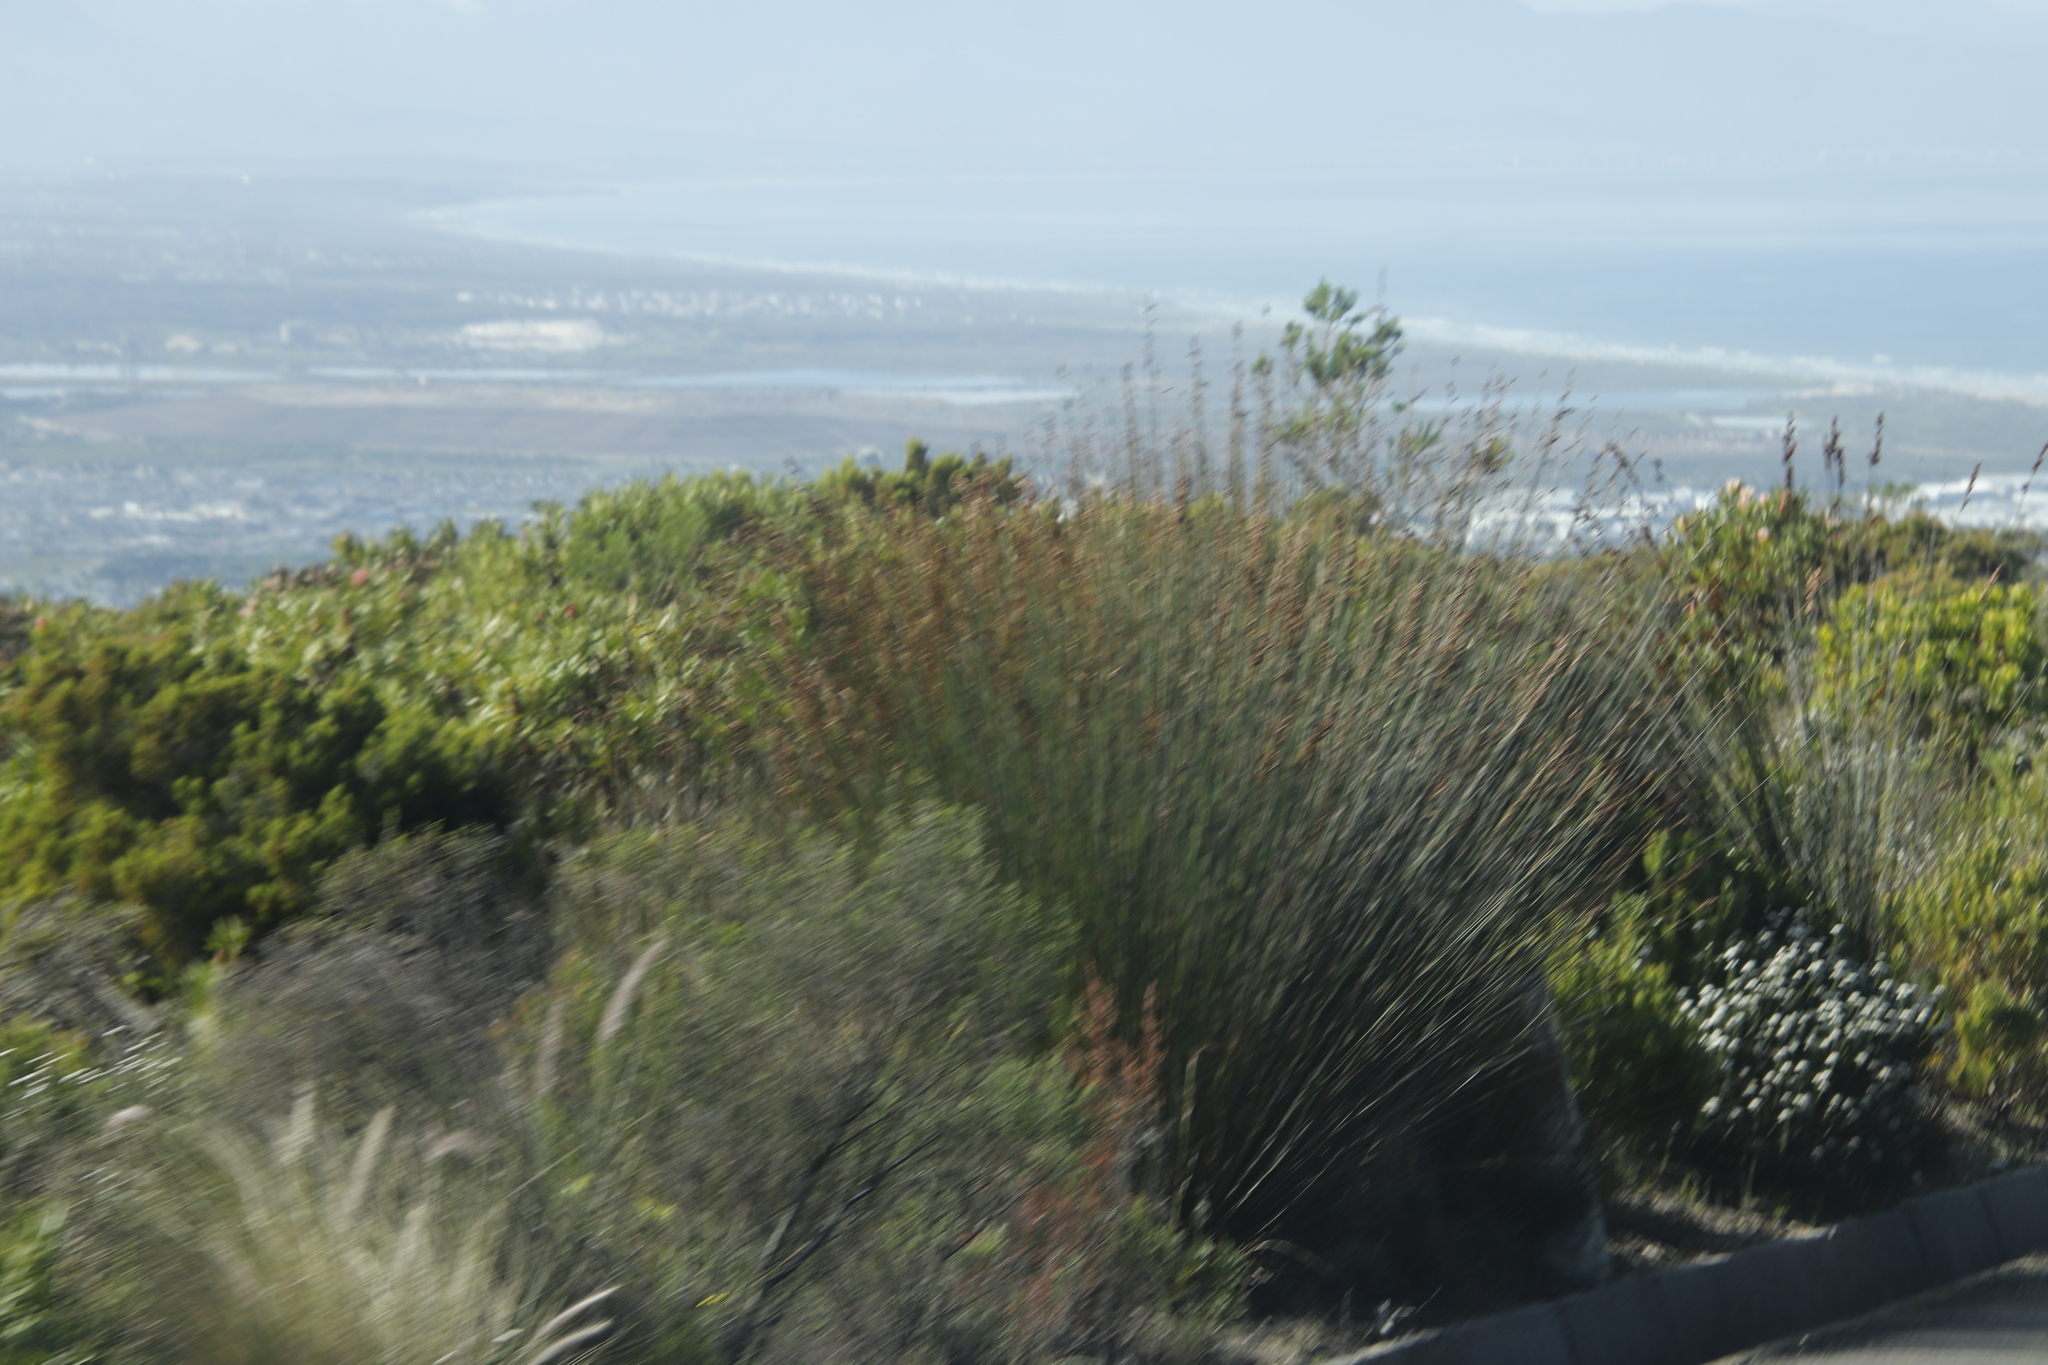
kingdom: Plantae
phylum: Tracheophyta
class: Liliopsida
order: Poales
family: Restionaceae
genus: Thamnochortus
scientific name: Thamnochortus insignis
